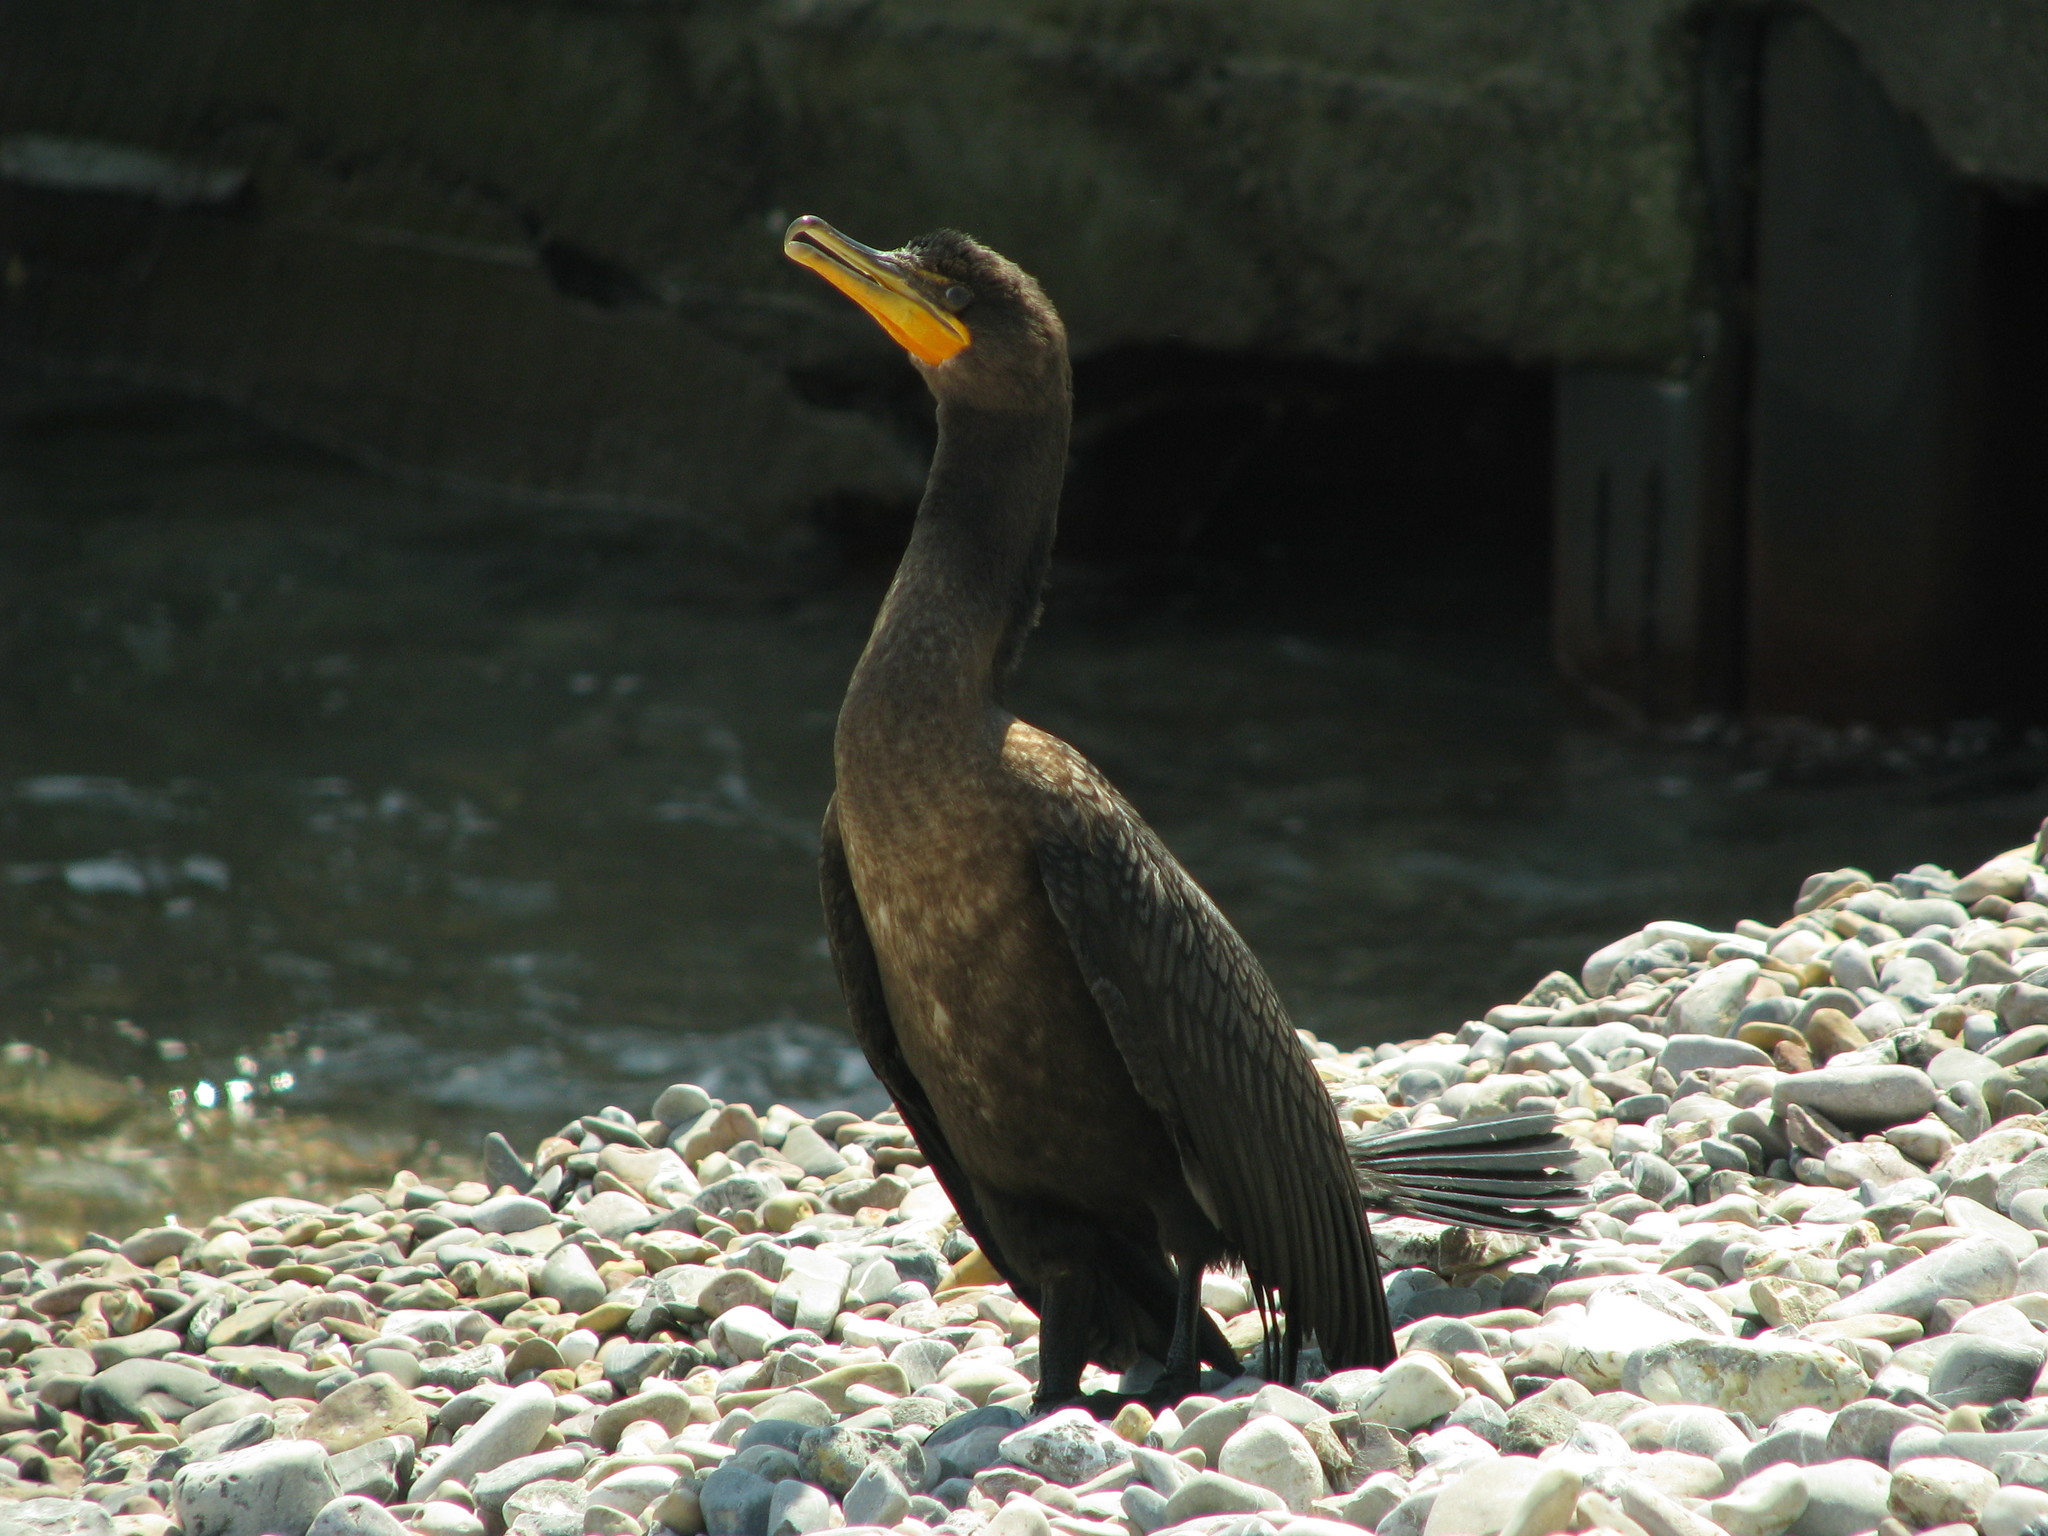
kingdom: Animalia
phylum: Chordata
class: Aves
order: Suliformes
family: Phalacrocoracidae
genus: Phalacrocorax
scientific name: Phalacrocorax auritus
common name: Double-crested cormorant
